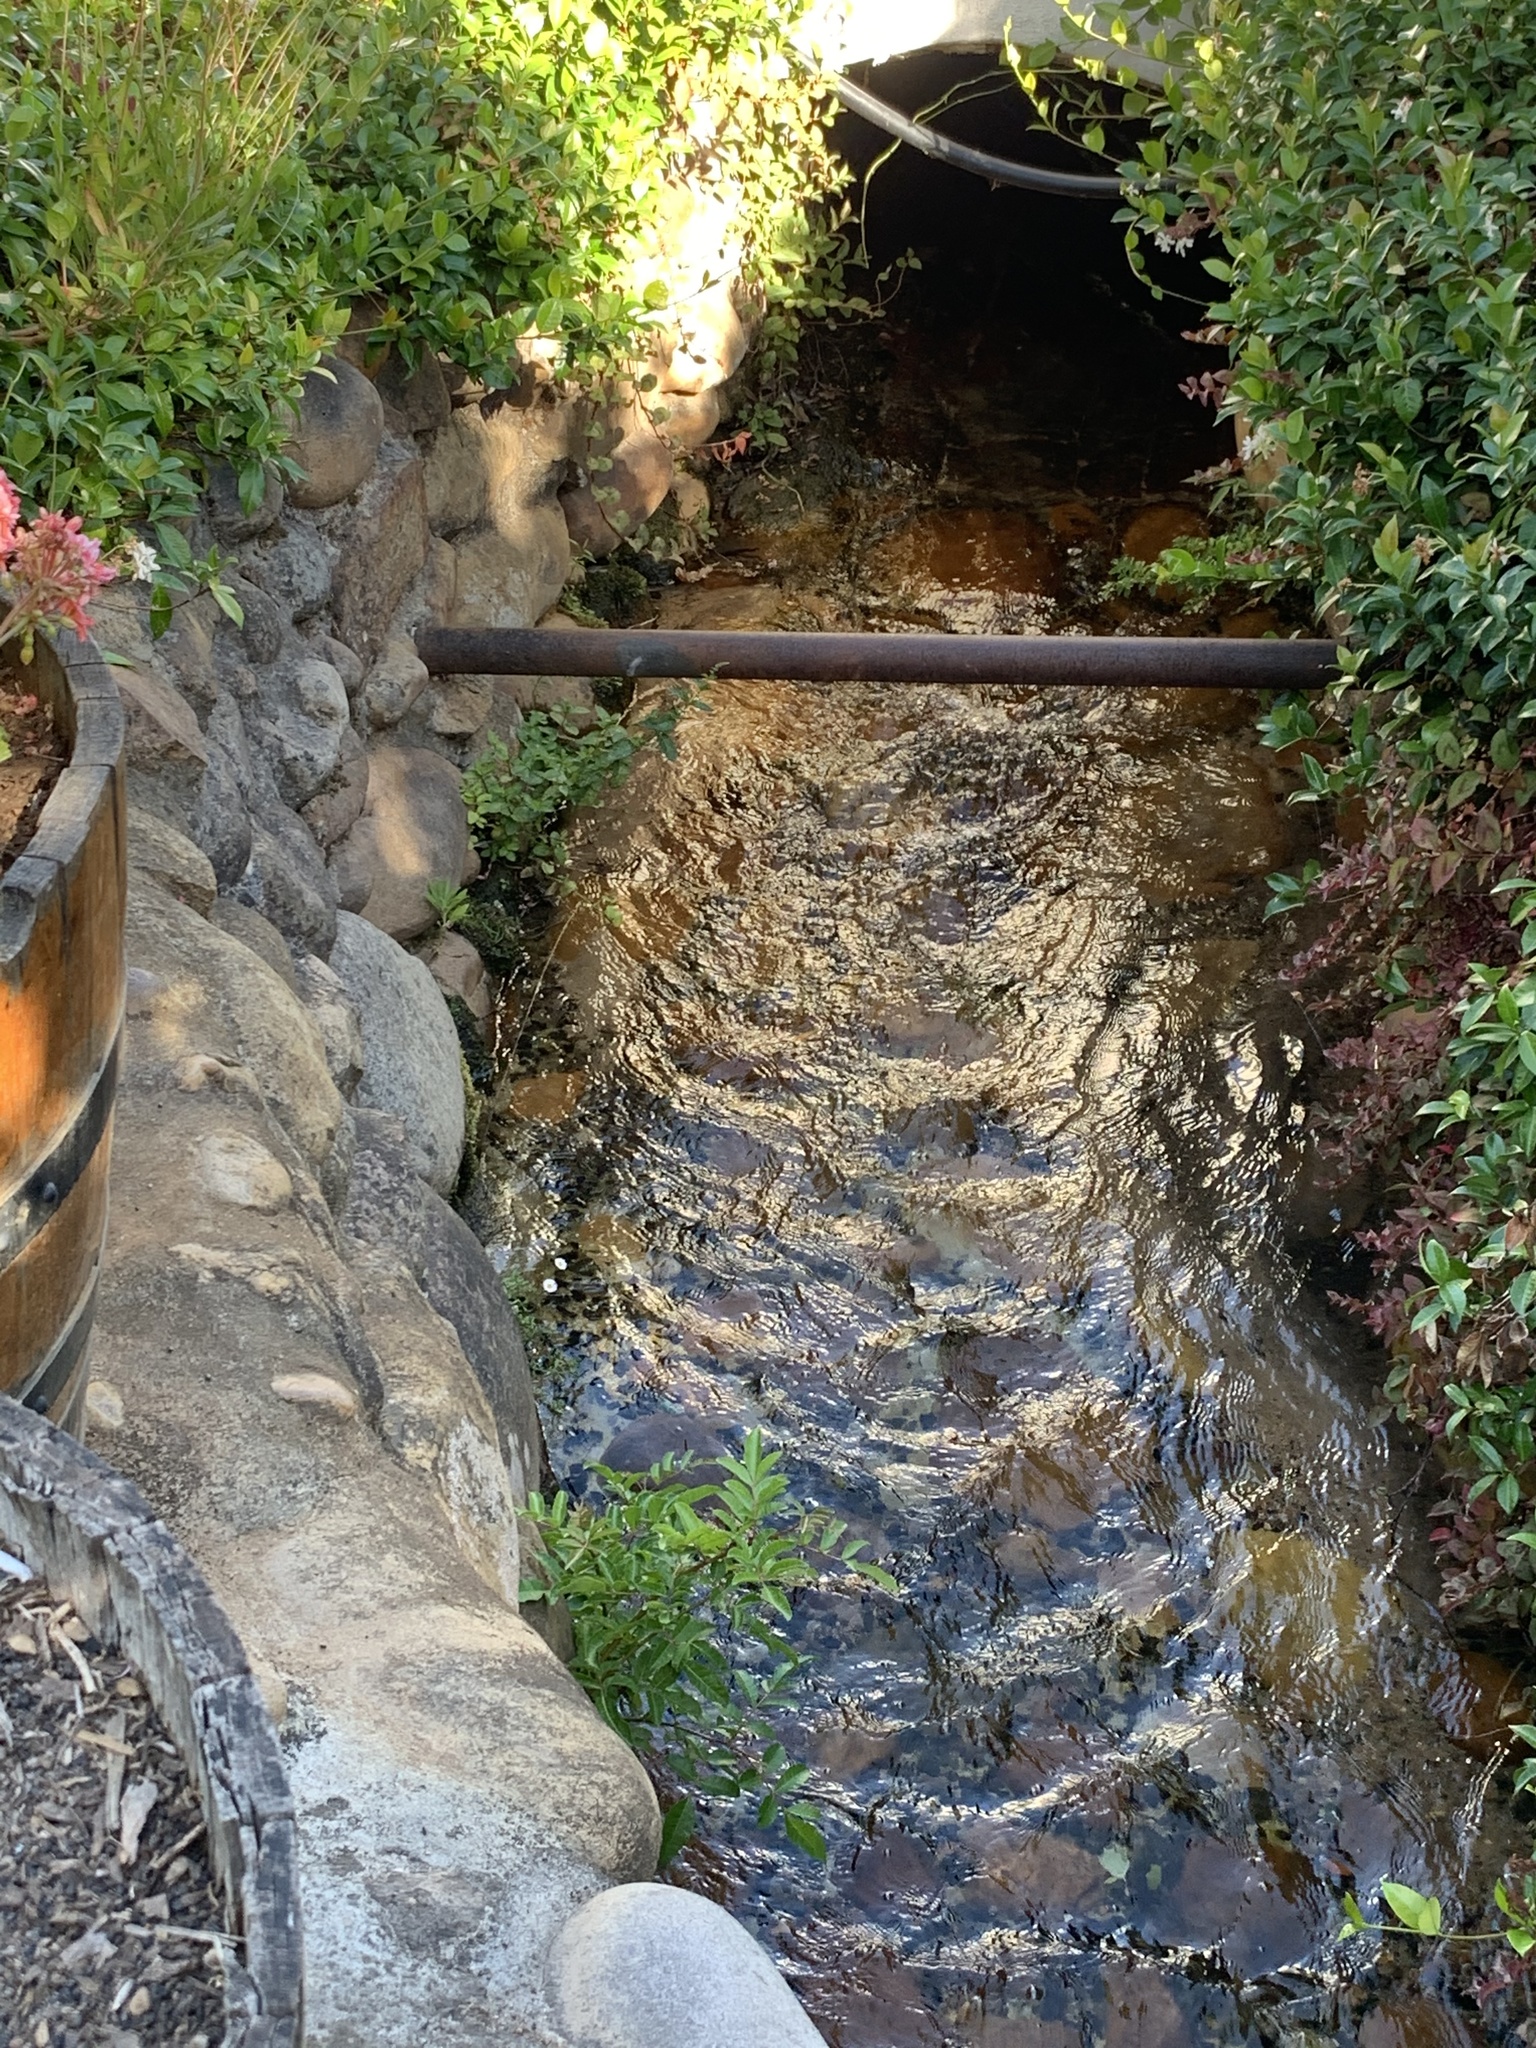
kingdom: Plantae
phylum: Tracheophyta
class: Magnoliopsida
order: Sapindales
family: Anacardiaceae
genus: Schinus
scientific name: Schinus terebinthifolia
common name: Brazilian peppertree
